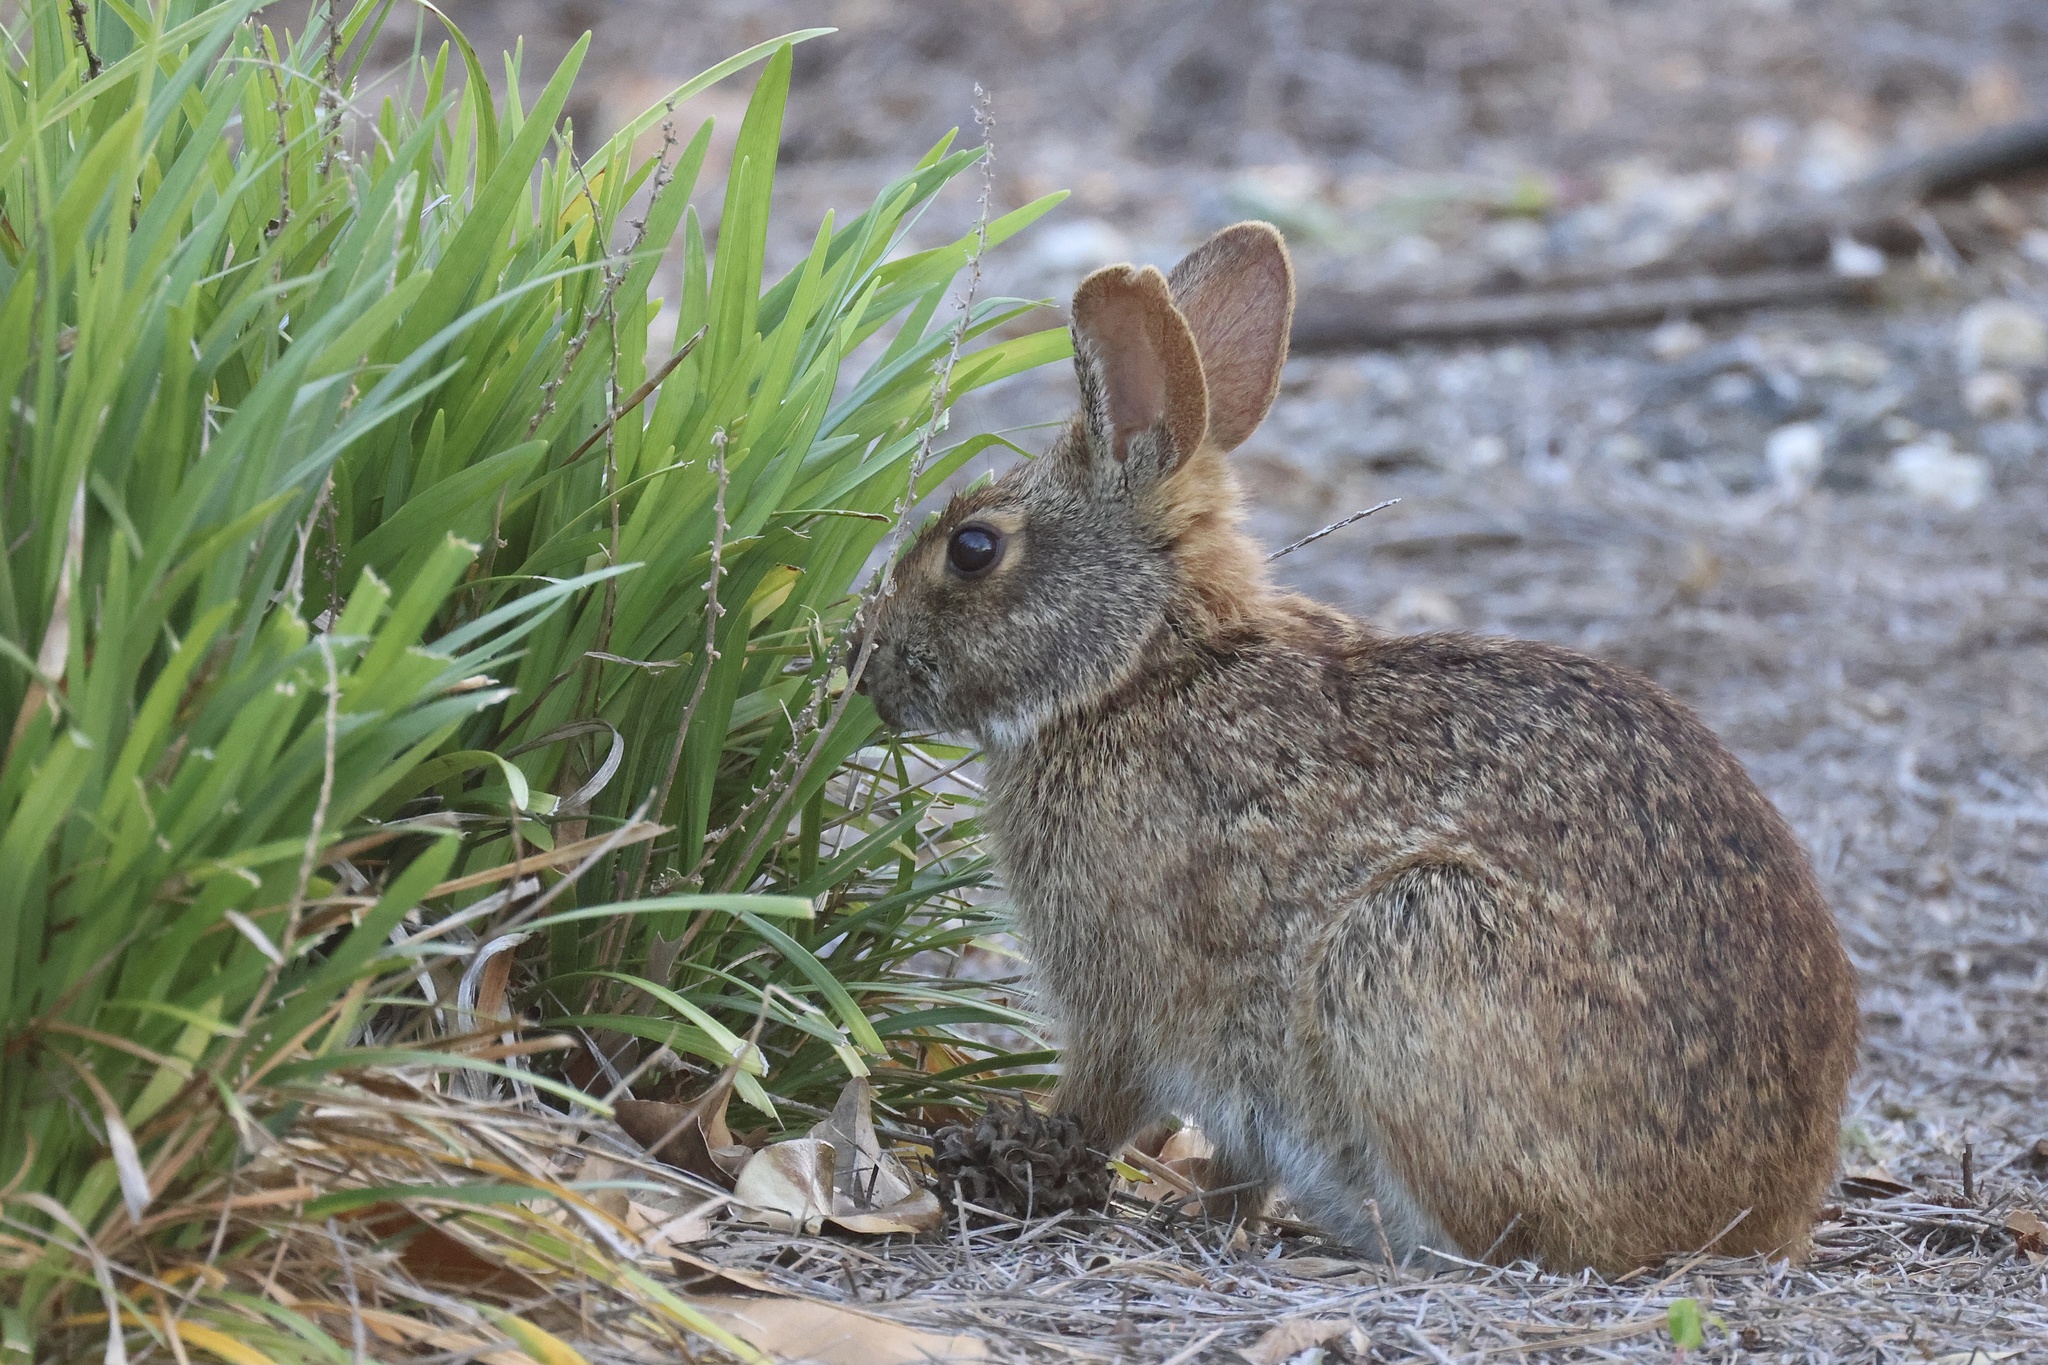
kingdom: Animalia
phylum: Chordata
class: Mammalia
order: Lagomorpha
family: Leporidae
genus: Sylvilagus
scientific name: Sylvilagus palustris
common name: Marsh rabbit
